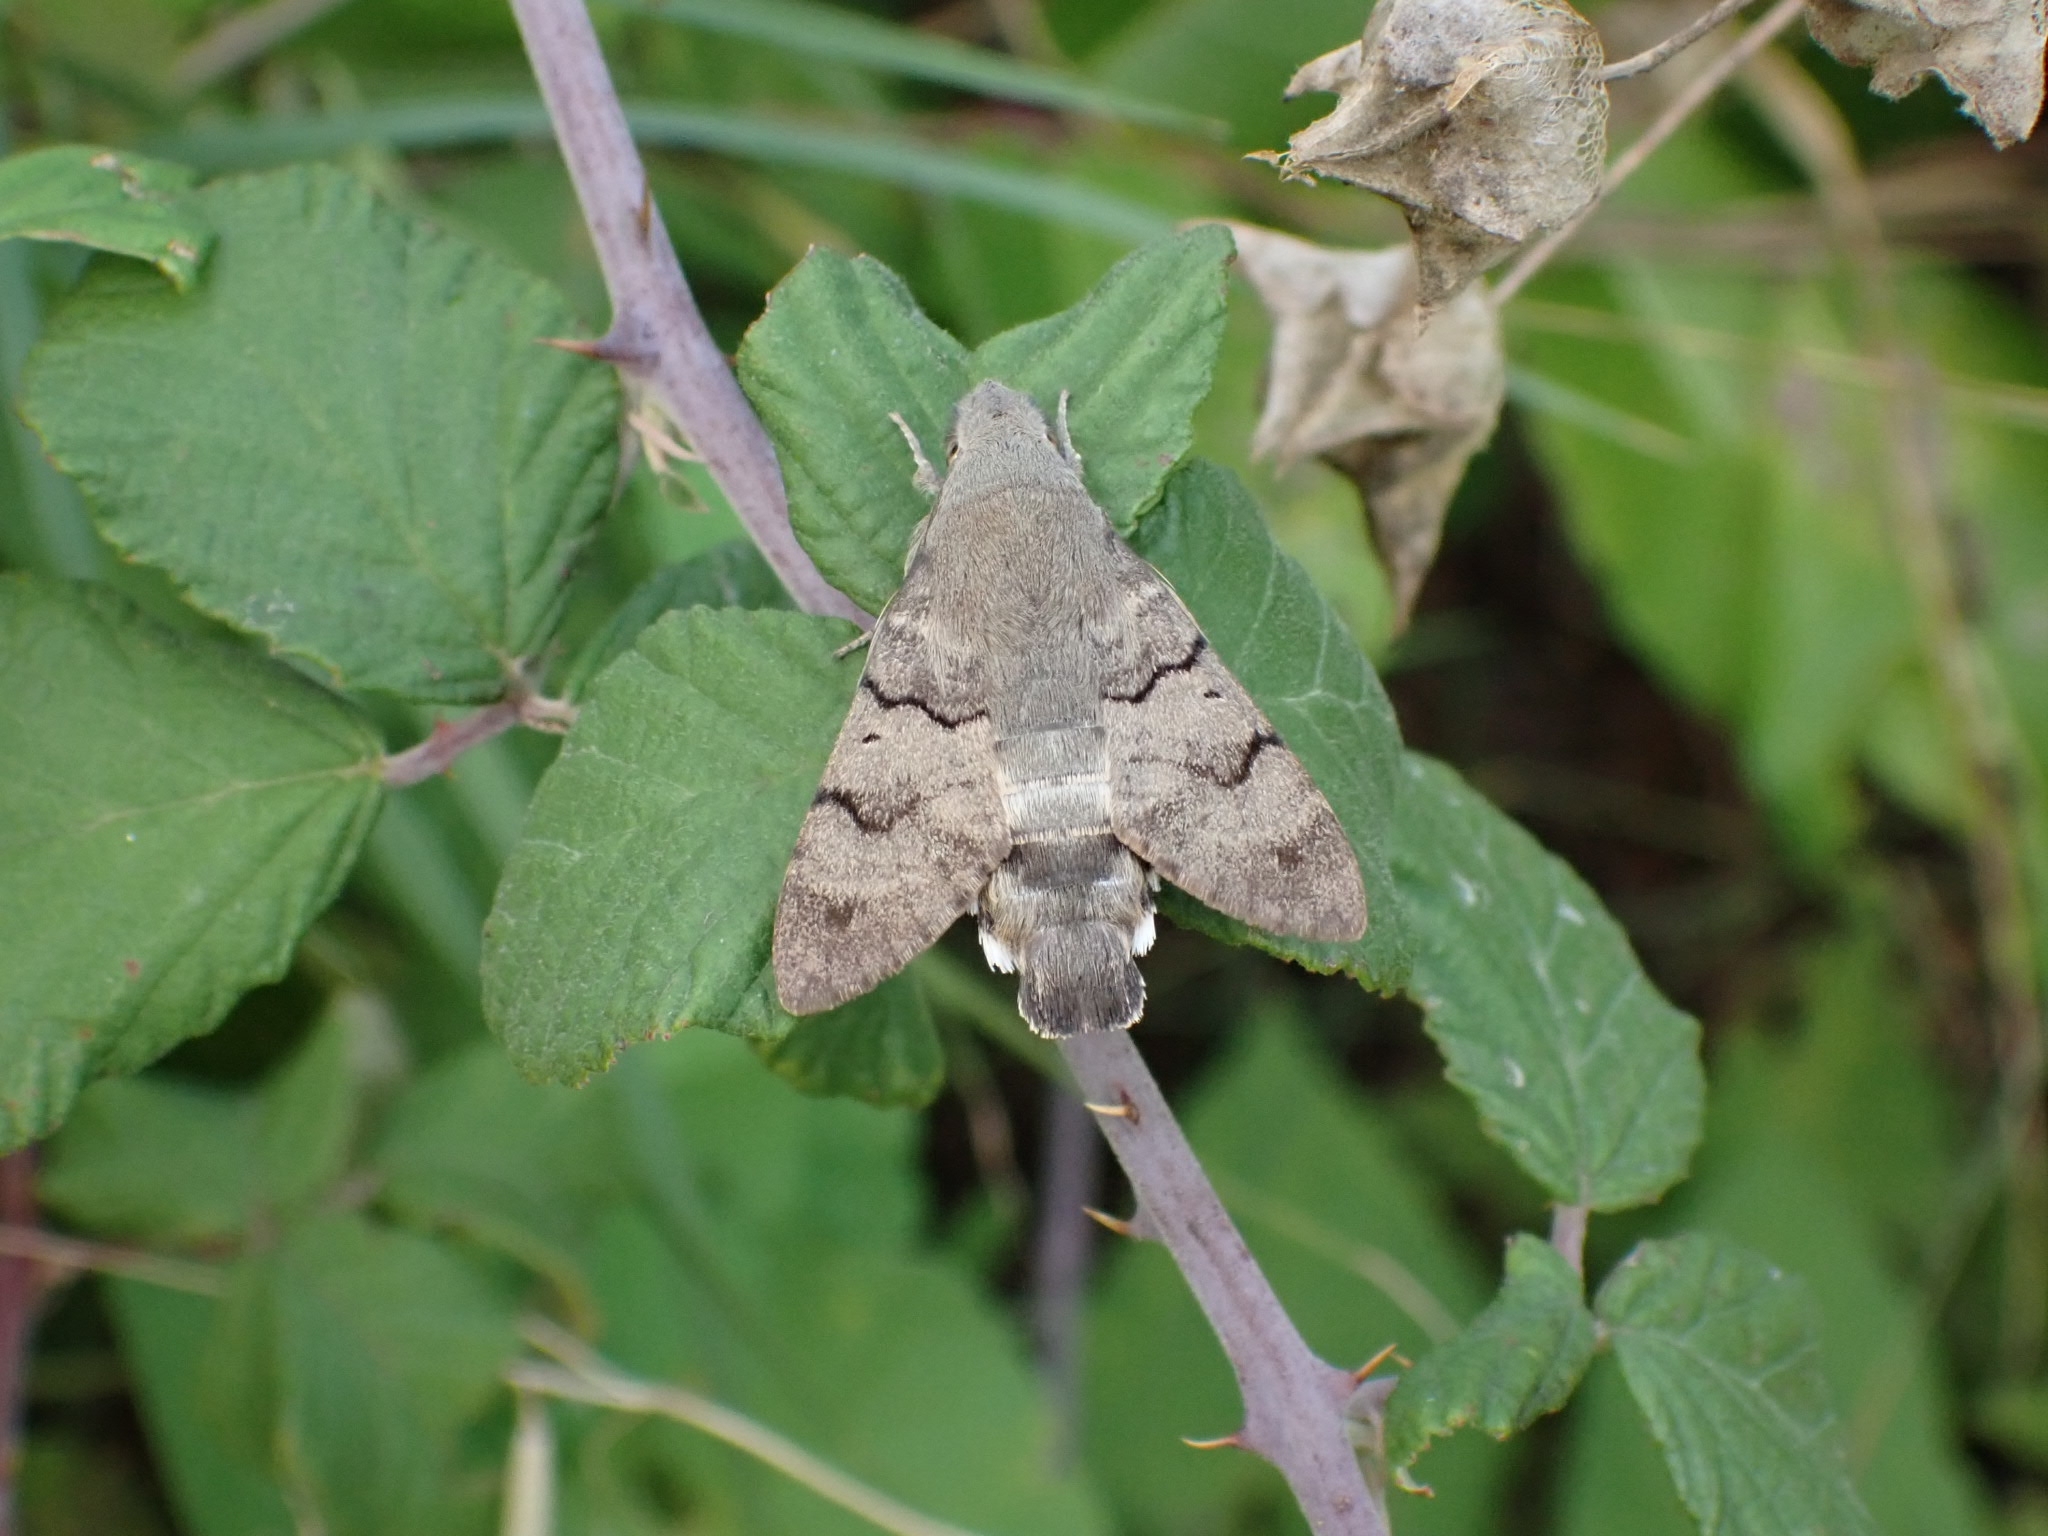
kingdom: Animalia
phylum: Arthropoda
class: Insecta
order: Lepidoptera
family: Sphingidae
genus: Macroglossum
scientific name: Macroglossum stellatarum
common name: Humming-bird hawk-moth
